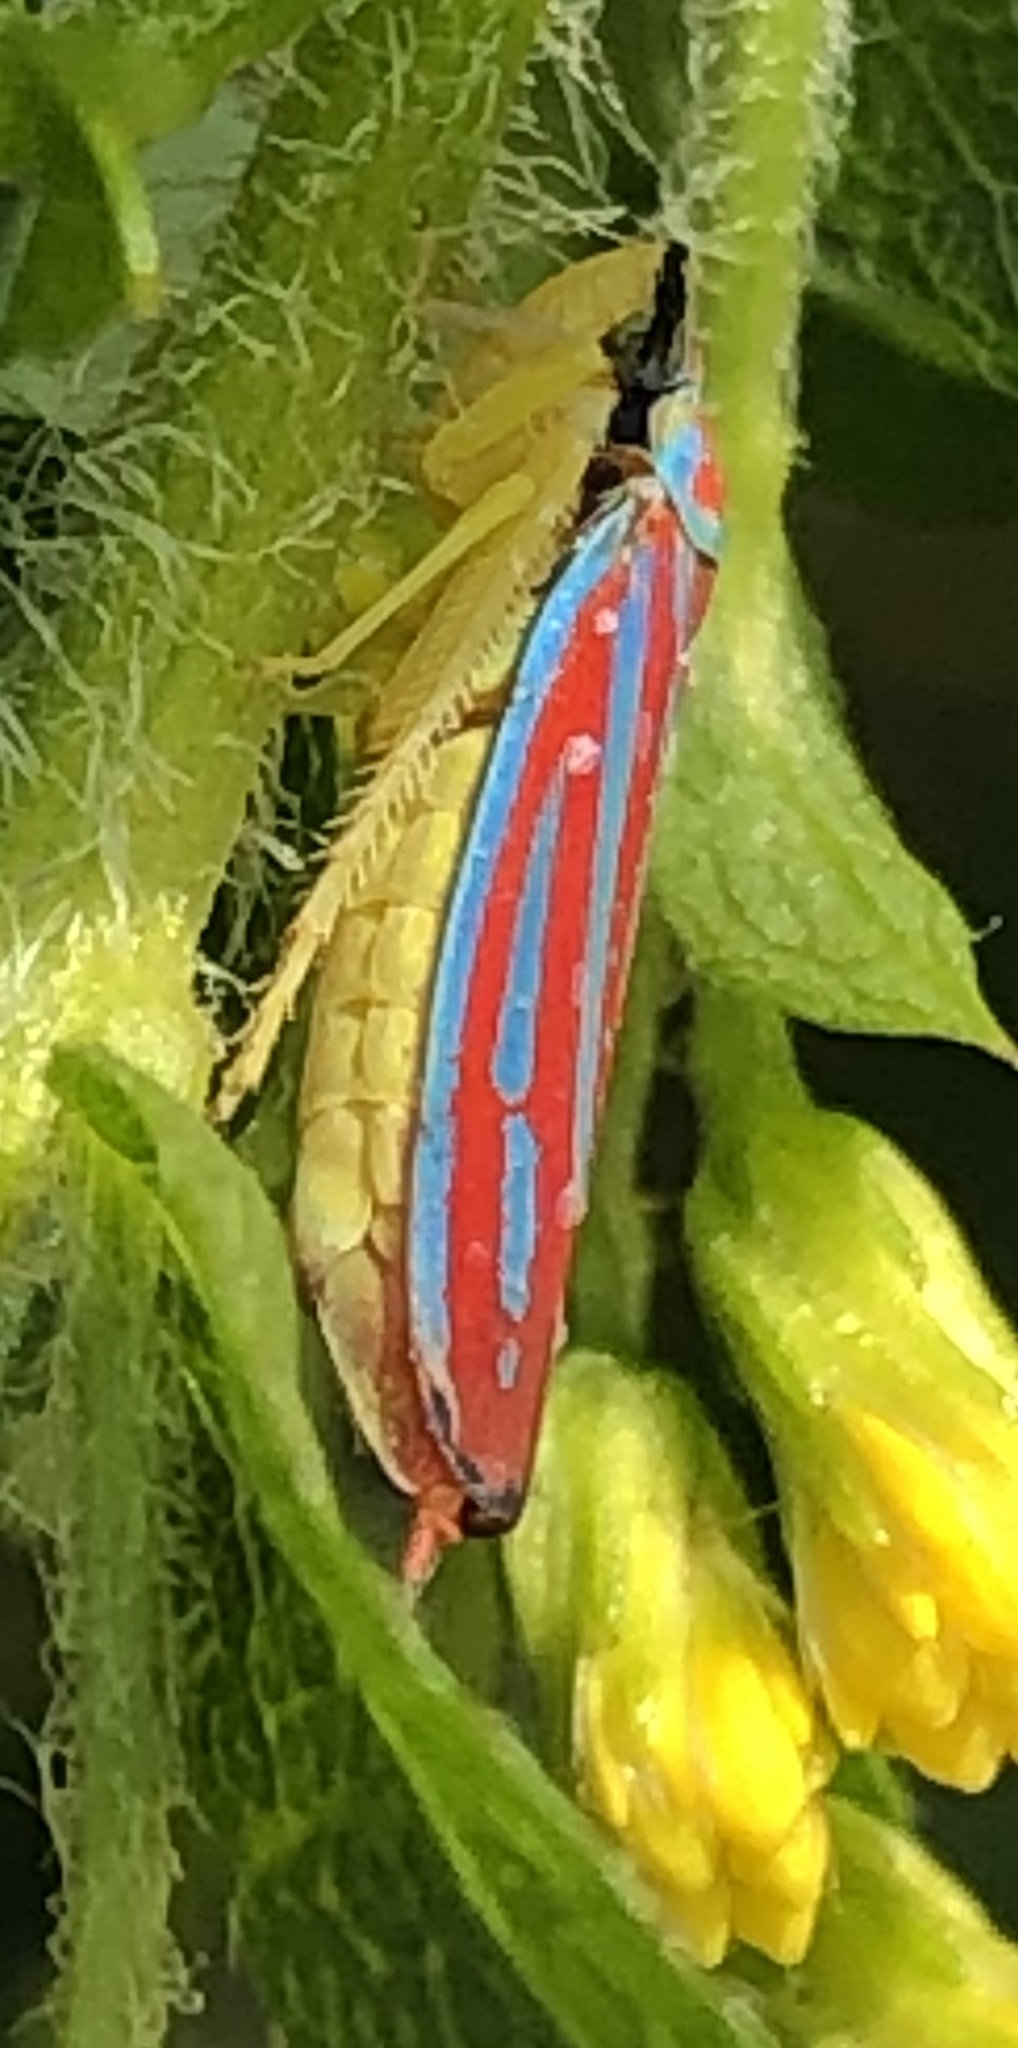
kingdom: Animalia
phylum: Arthropoda
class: Insecta
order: Hemiptera
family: Cicadellidae
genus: Graphocephala
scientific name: Graphocephala coccinea
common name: Candy-striped leafhopper
